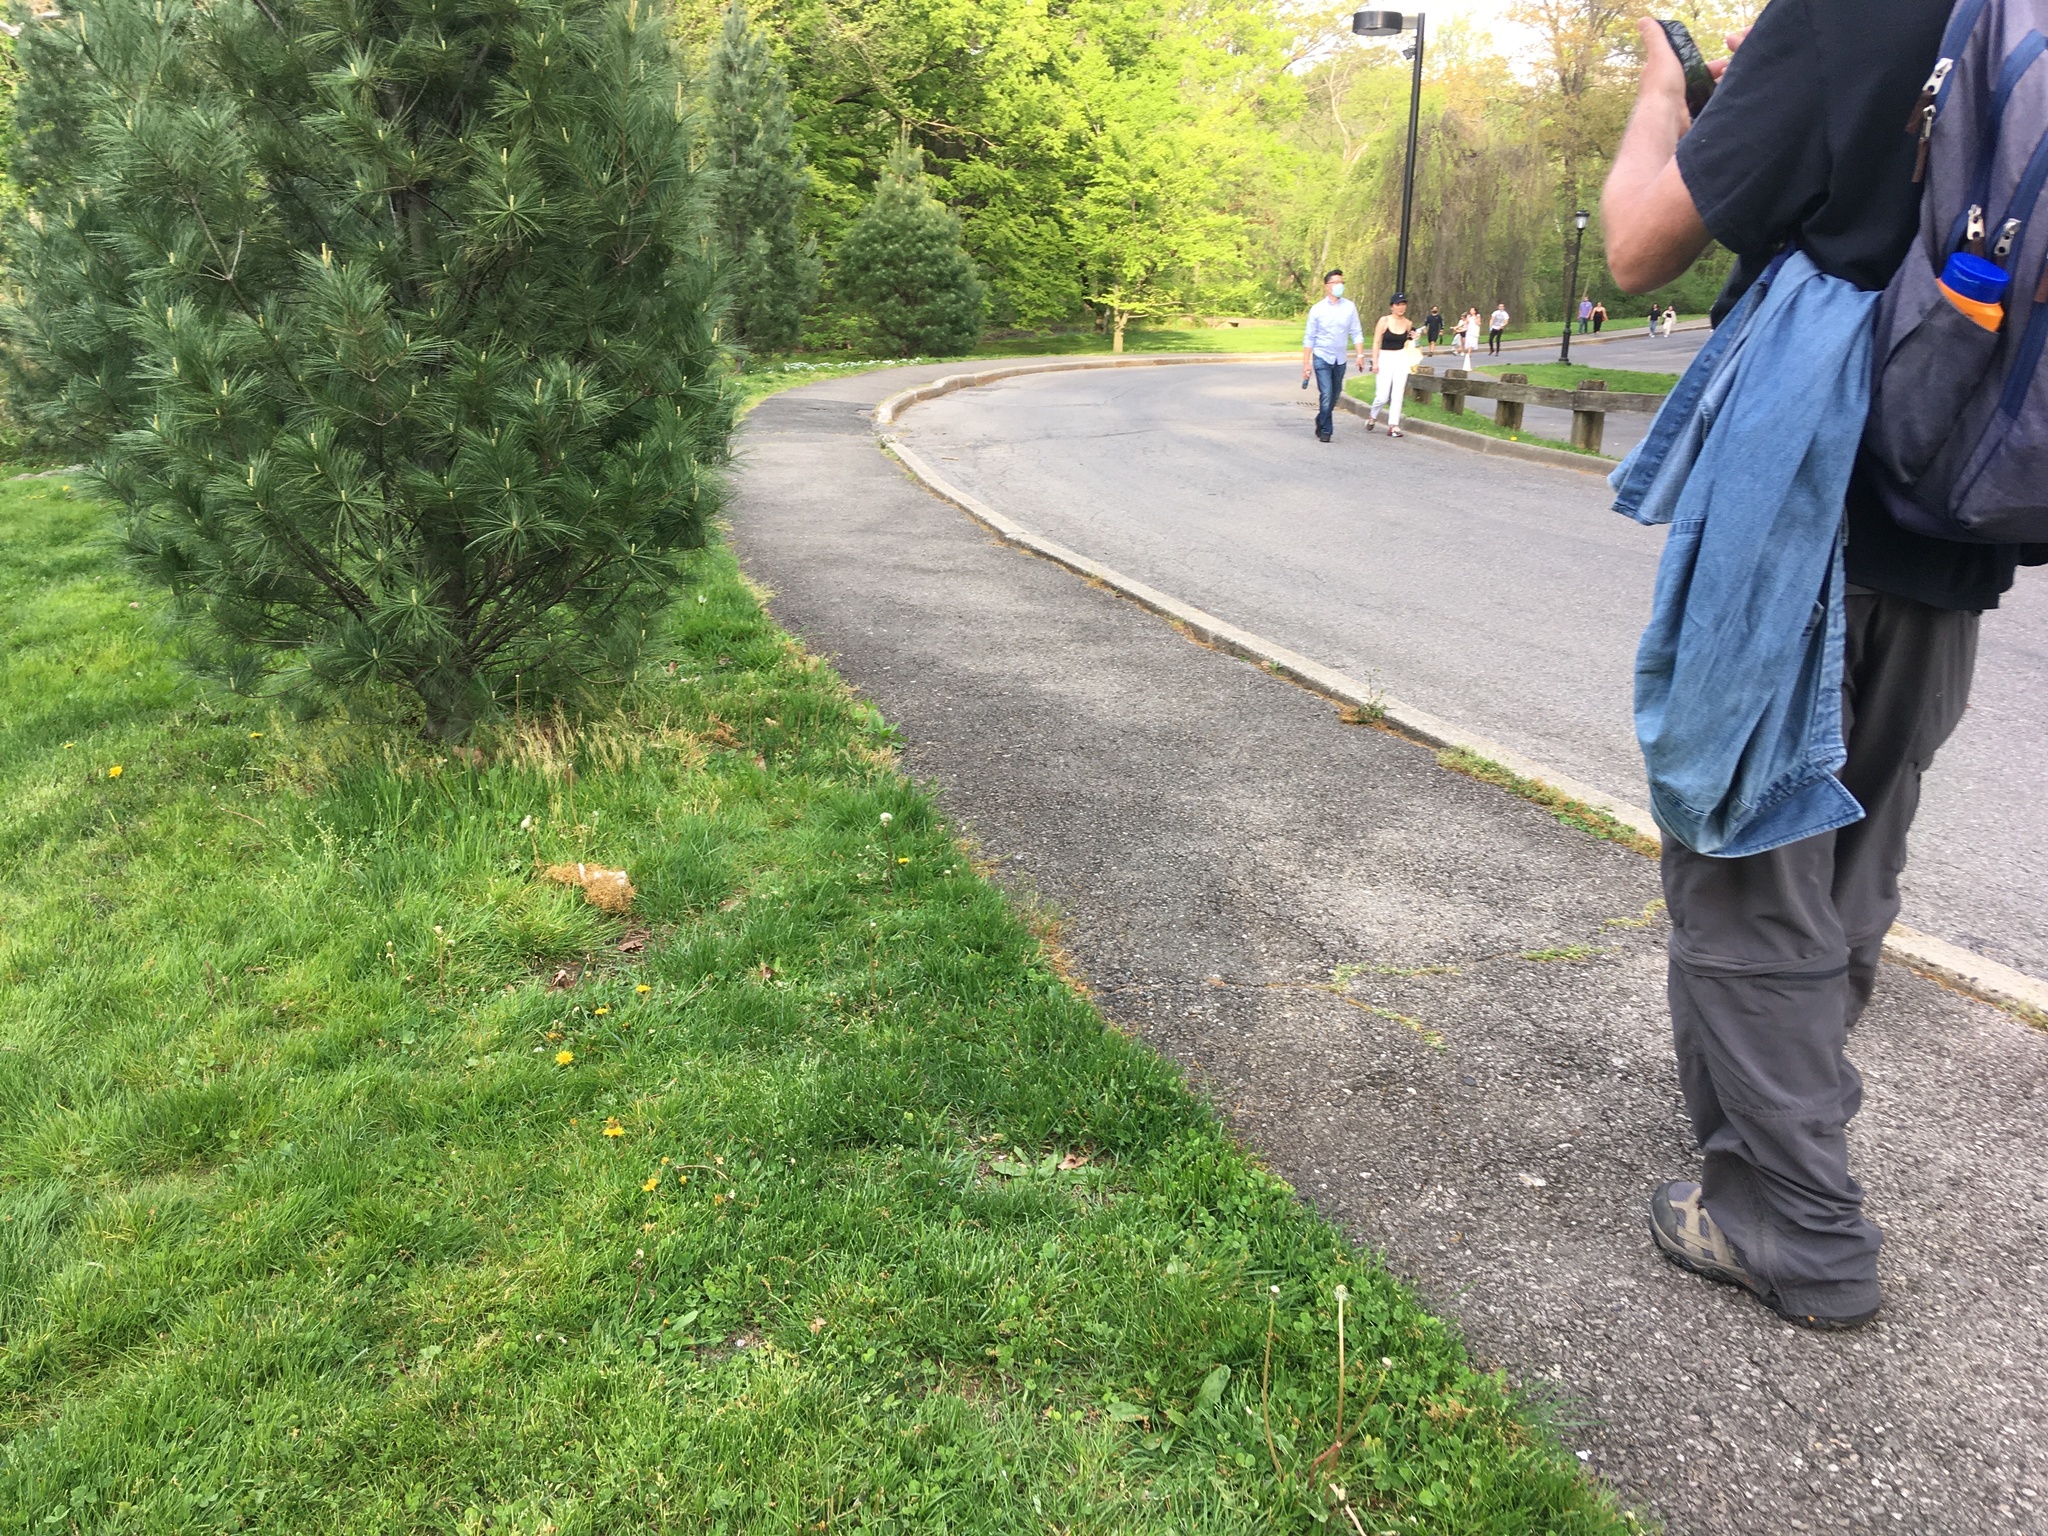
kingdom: Animalia
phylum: Chordata
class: Aves
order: Passeriformes
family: Passerellidae
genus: Spizella
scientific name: Spizella passerina
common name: Chipping sparrow
